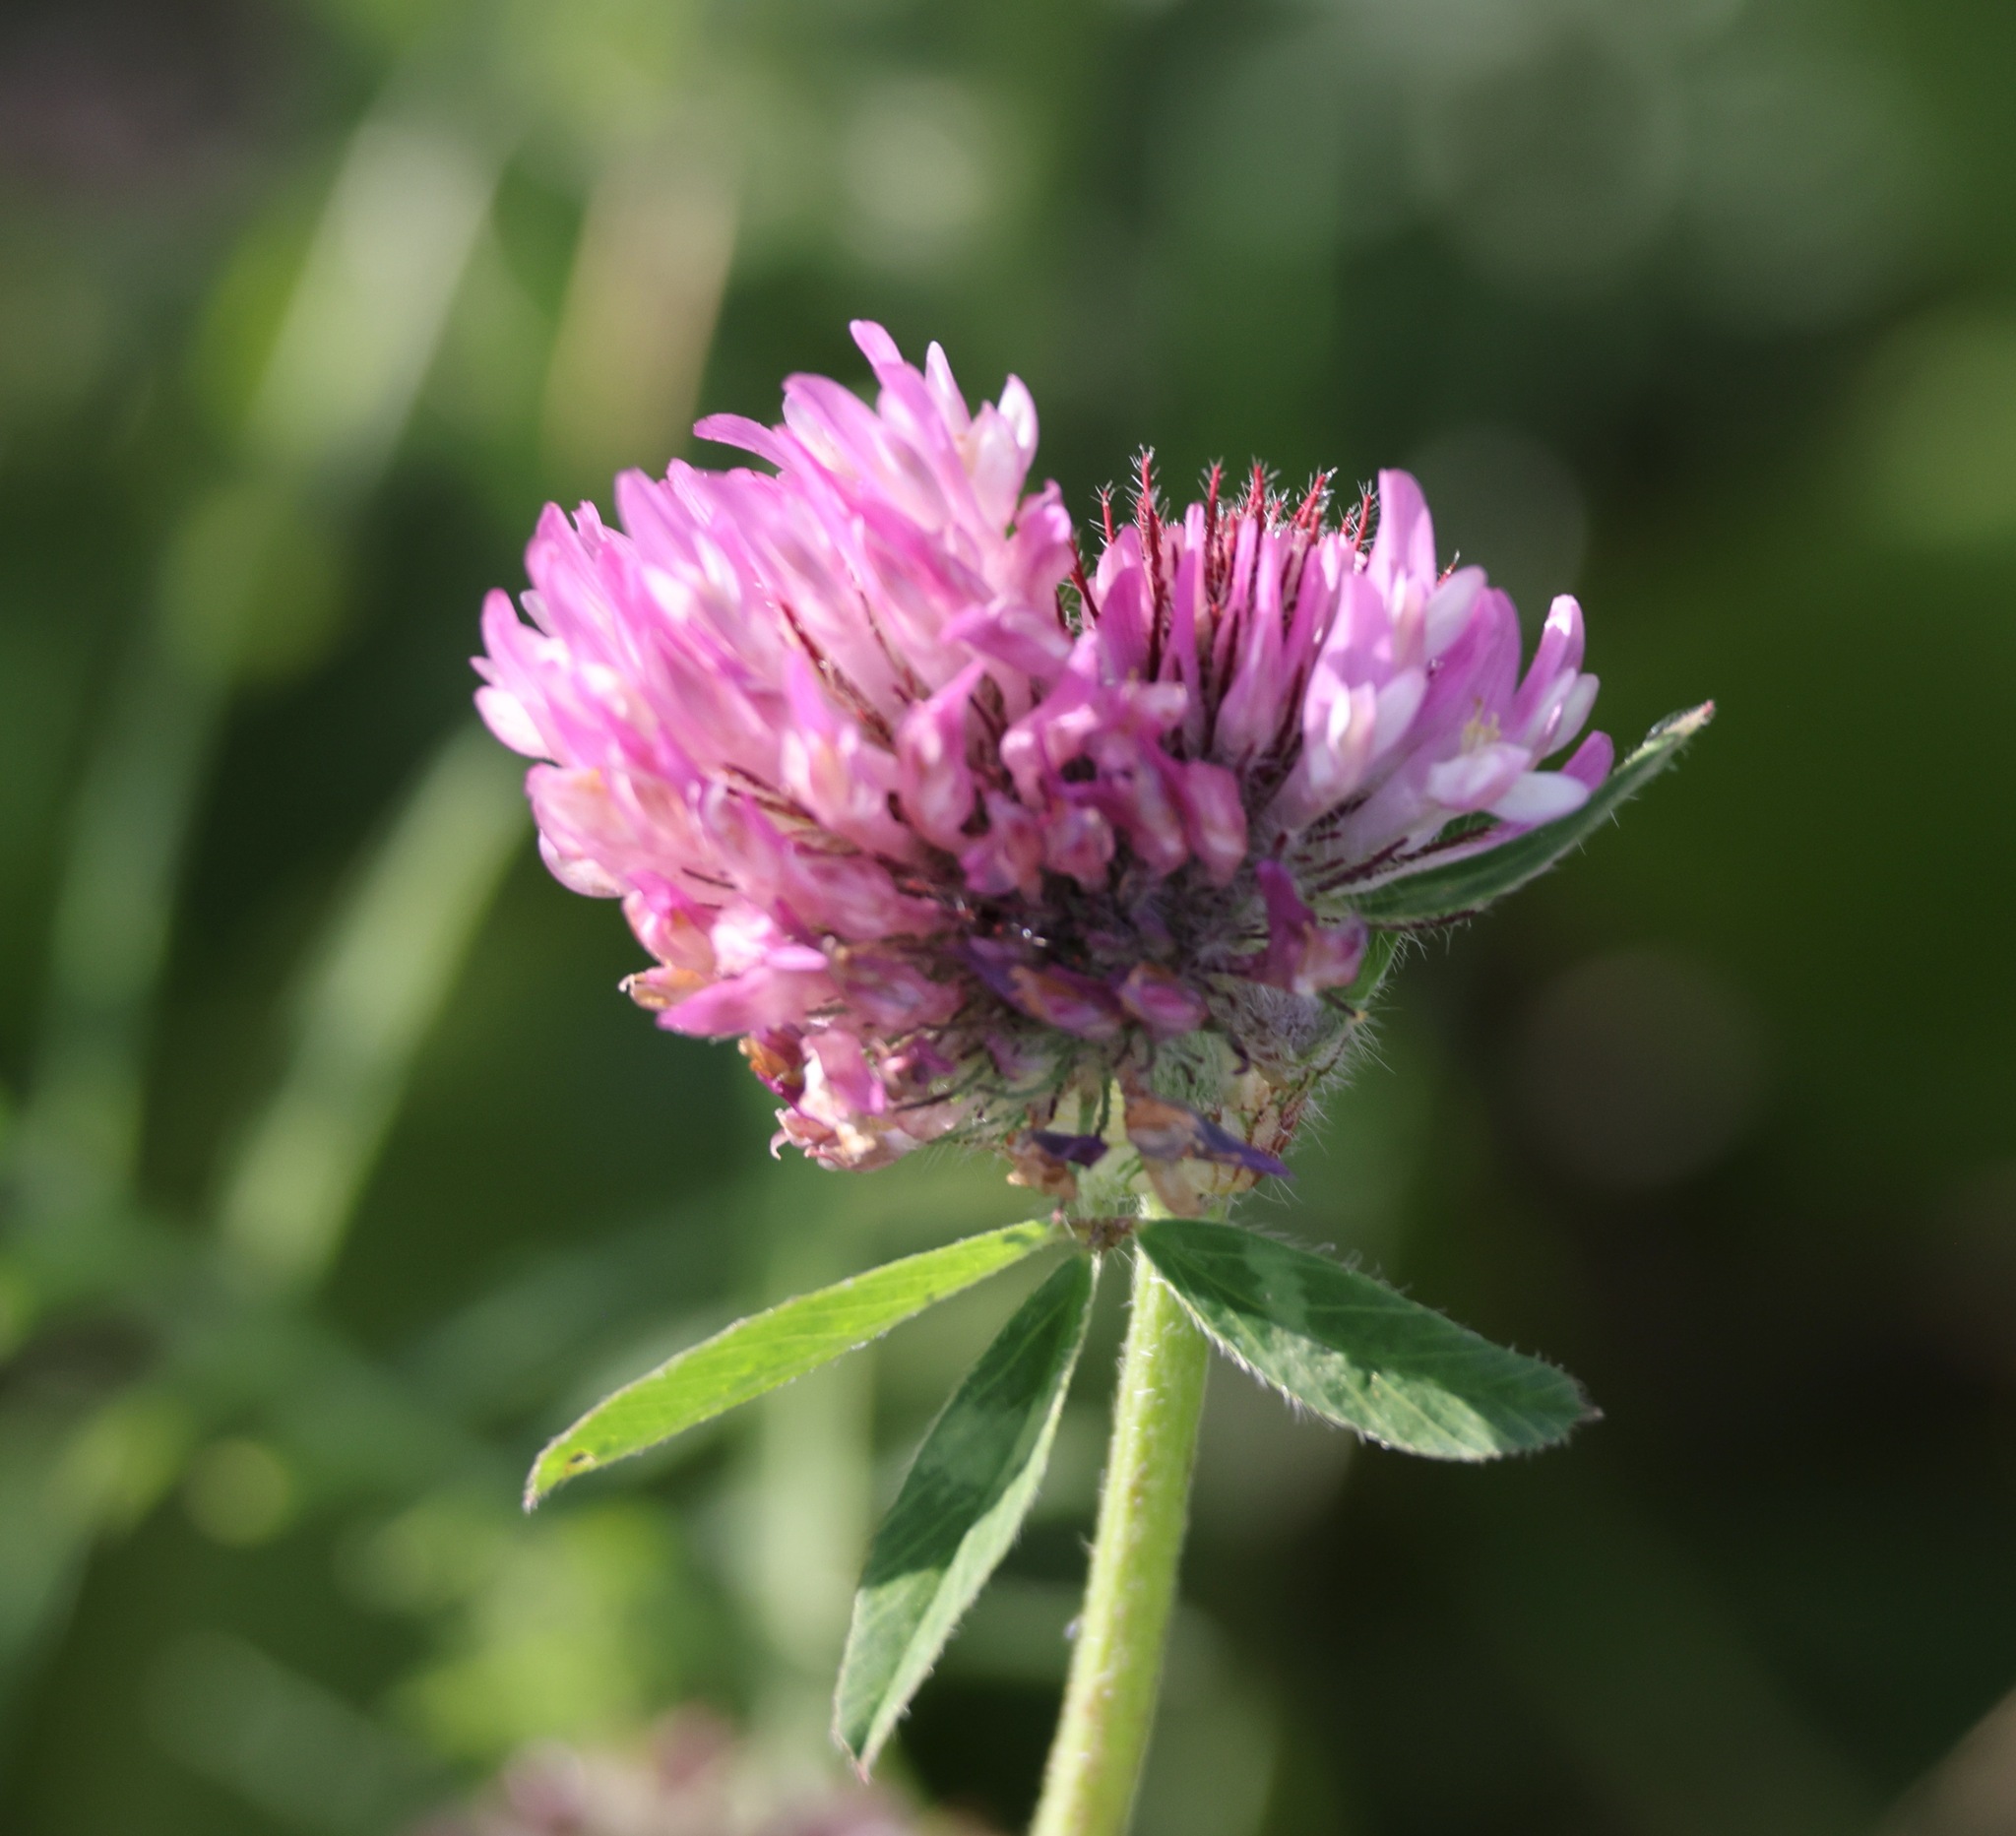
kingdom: Plantae
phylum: Tracheophyta
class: Magnoliopsida
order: Fabales
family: Fabaceae
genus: Trifolium
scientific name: Trifolium pratense
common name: Red clover
